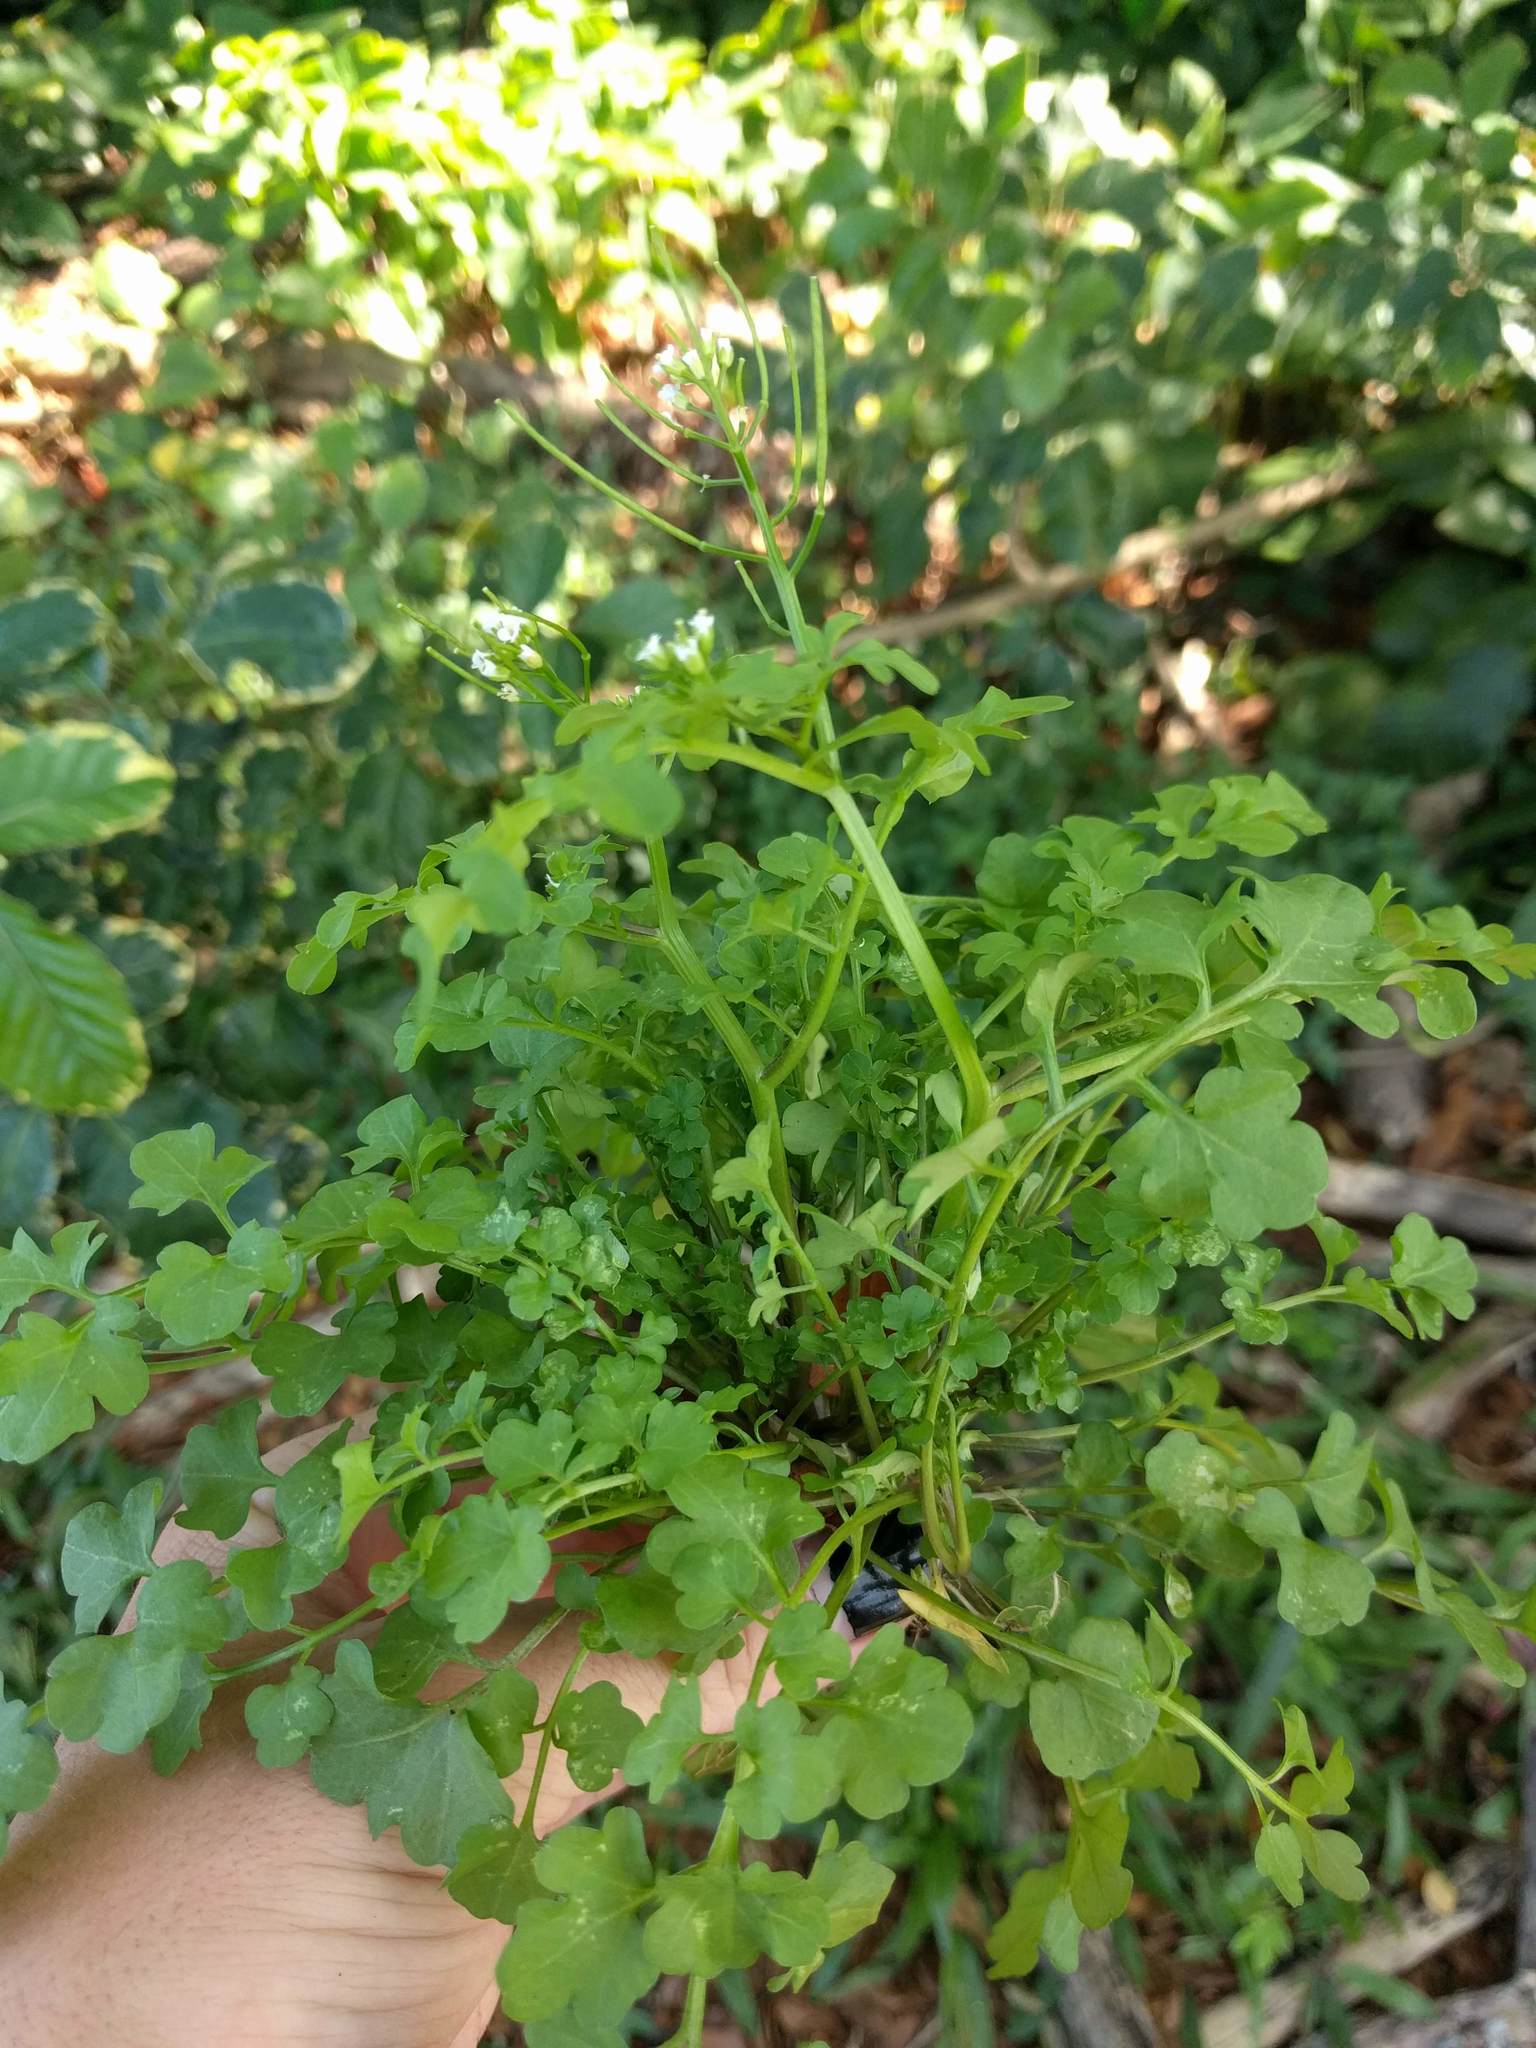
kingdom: Plantae
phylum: Tracheophyta
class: Magnoliopsida
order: Brassicales
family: Brassicaceae
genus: Cardamine
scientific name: Cardamine occulta
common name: Asian wavy bittercress
